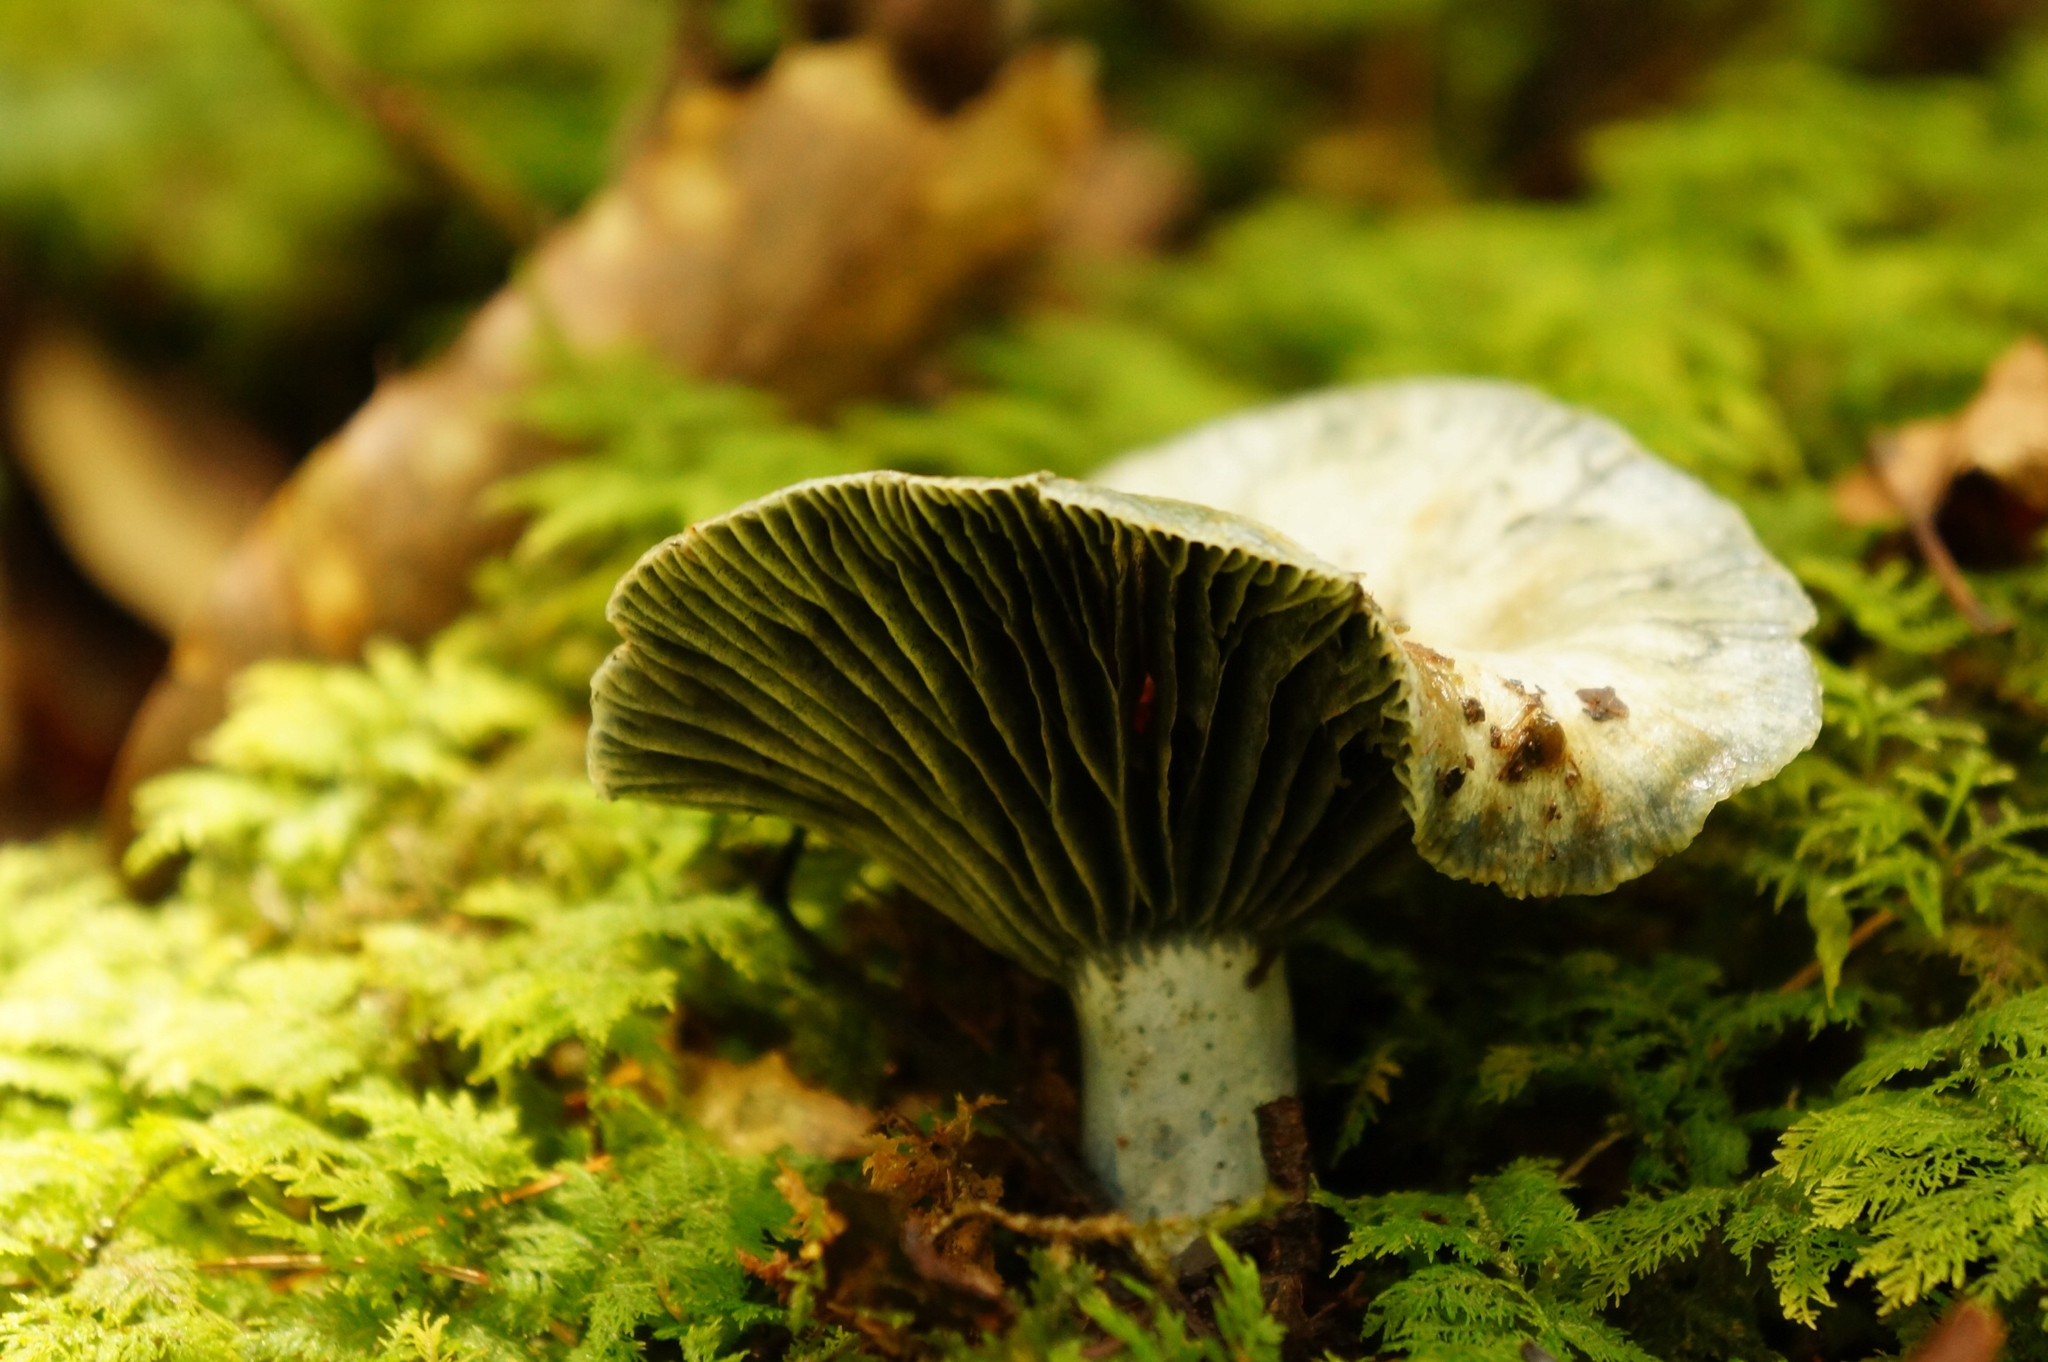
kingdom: Fungi
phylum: Basidiomycota
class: Agaricomycetes
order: Russulales
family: Russulaceae
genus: Lactarius
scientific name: Lactarius indigo
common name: Indigo milk cap
